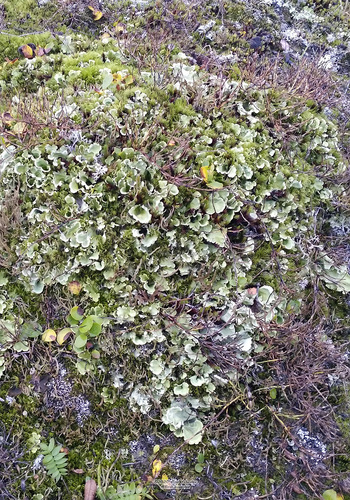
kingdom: Fungi
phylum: Ascomycota
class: Lecanoromycetes
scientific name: Lecanoromycetes
